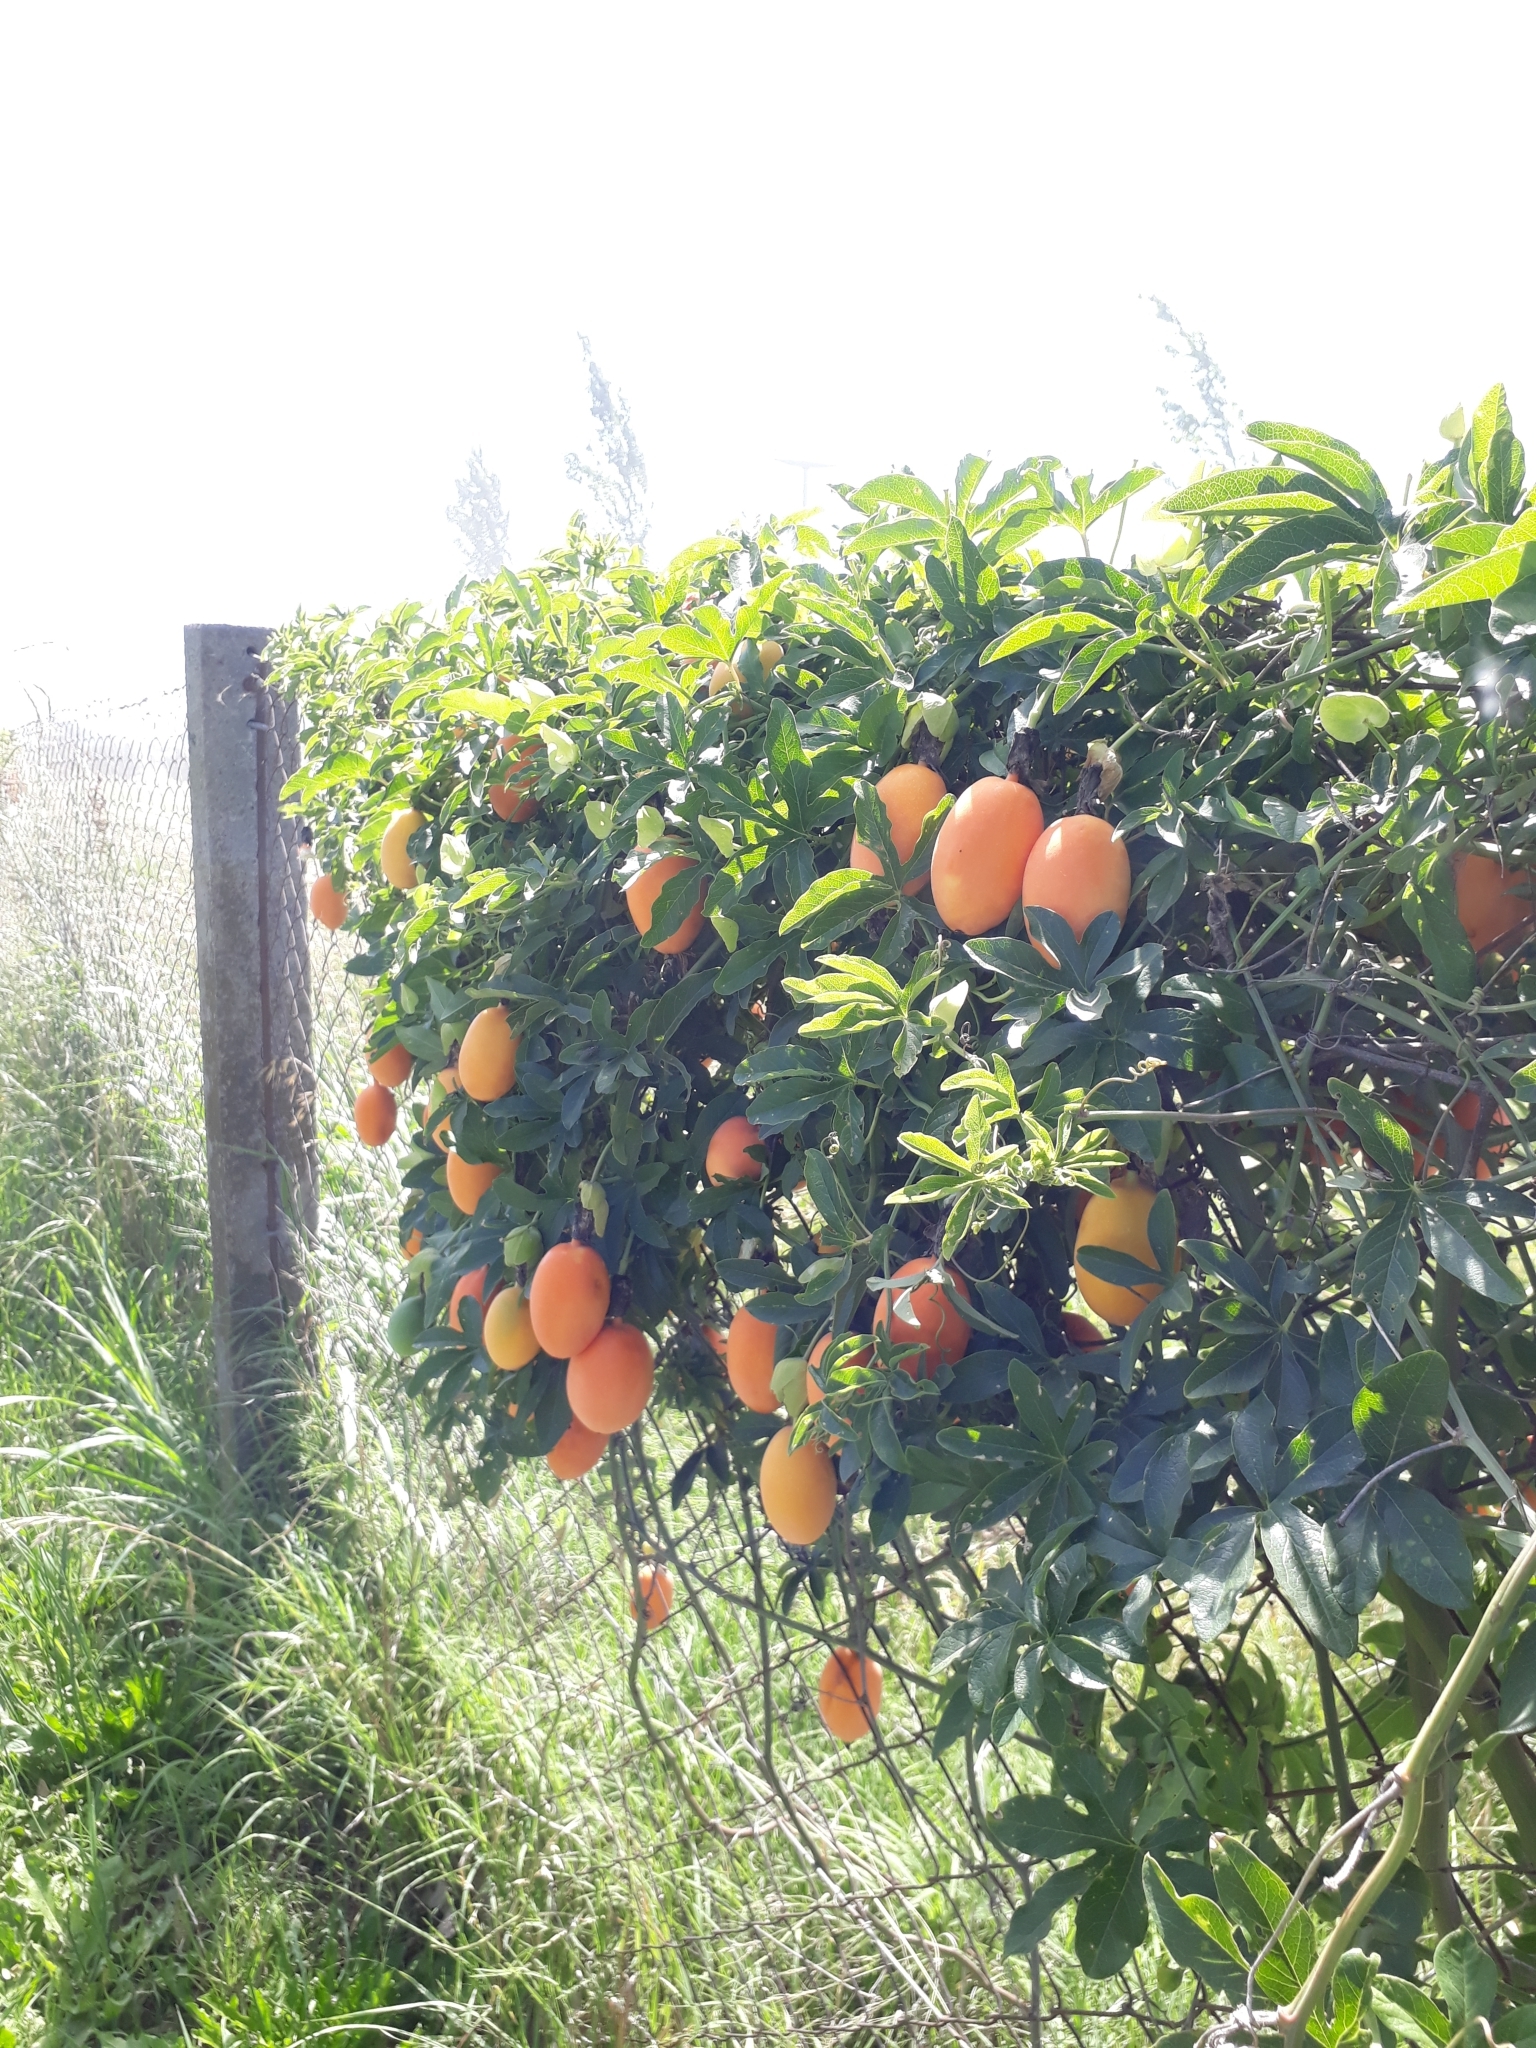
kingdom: Plantae
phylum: Tracheophyta
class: Magnoliopsida
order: Malpighiales
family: Passifloraceae
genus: Passiflora
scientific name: Passiflora caerulea
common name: Blue passionflower
